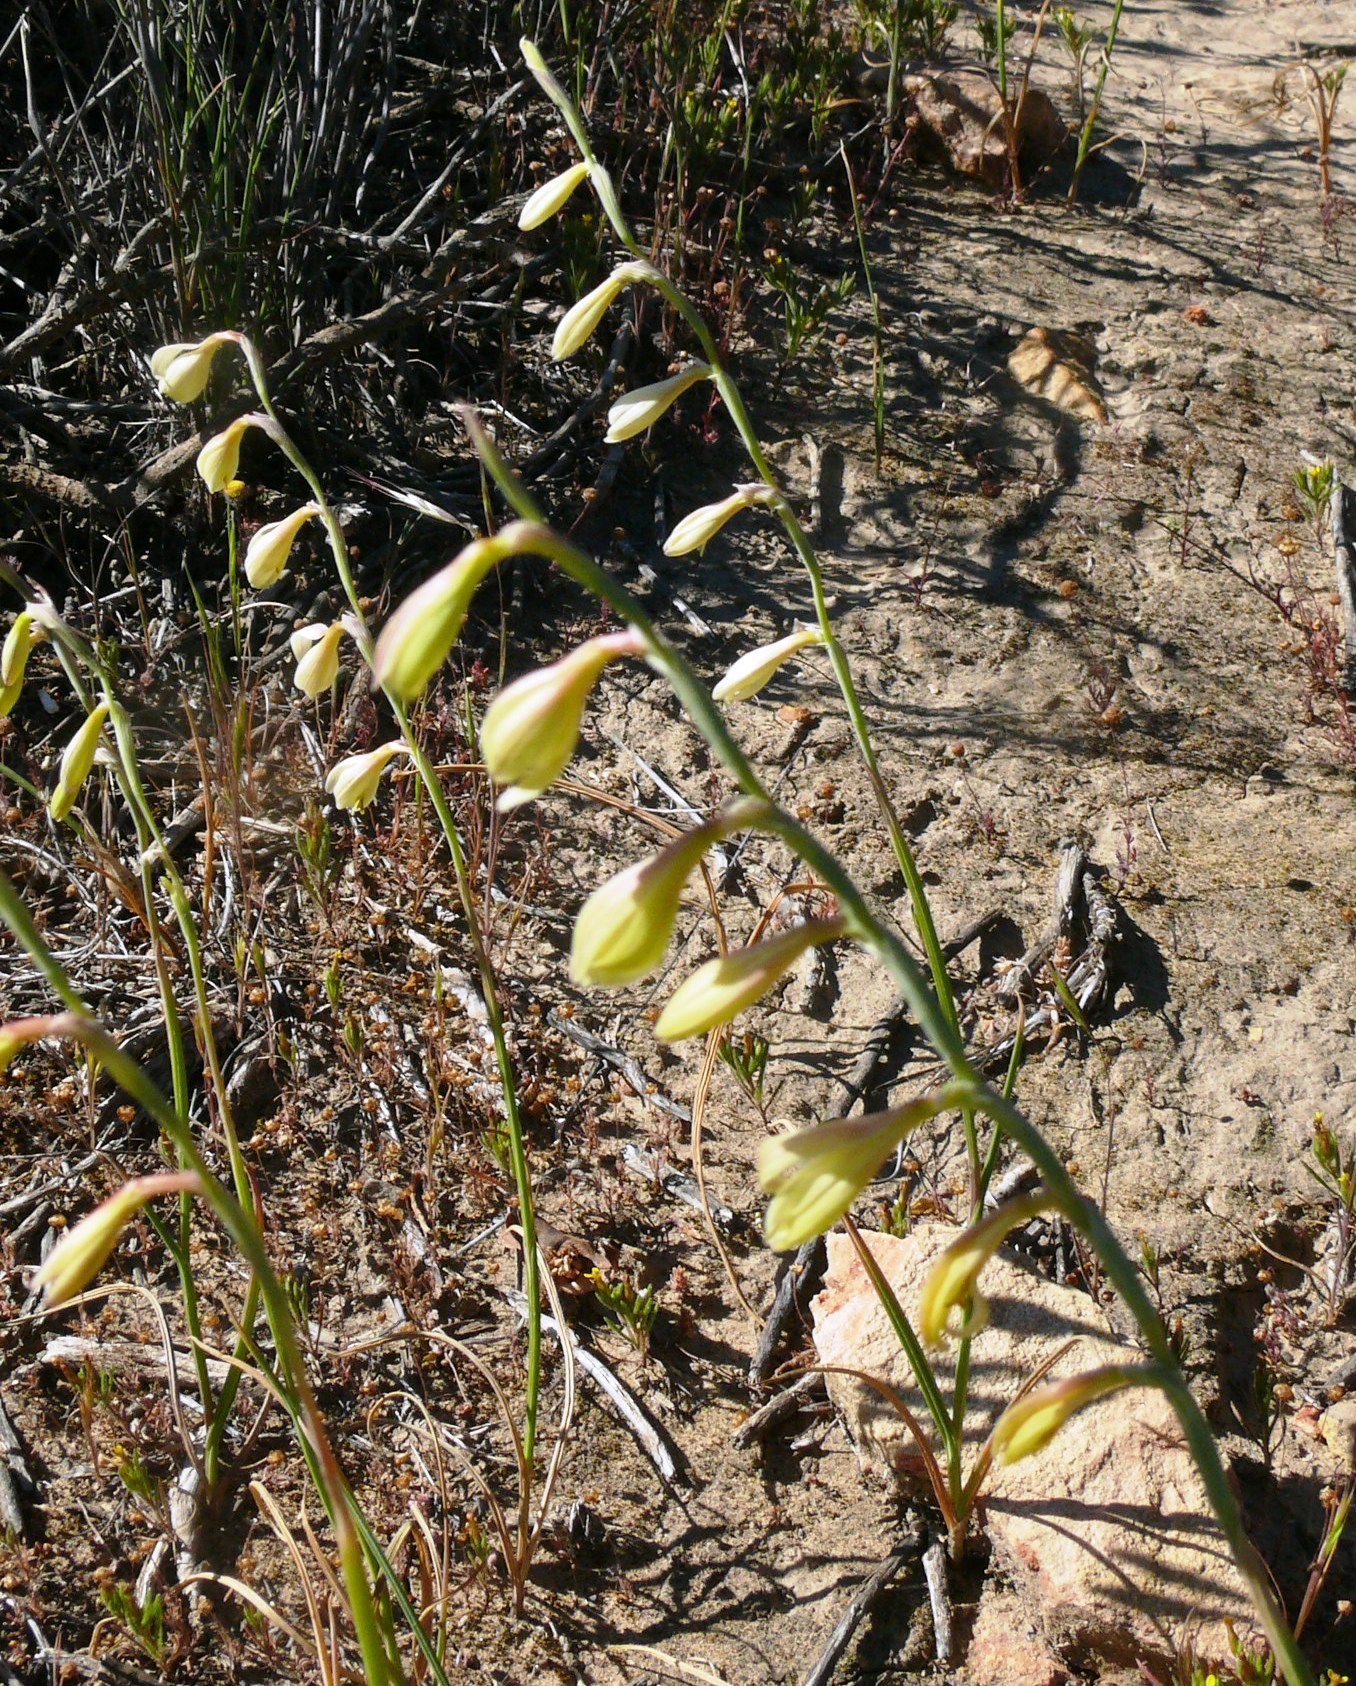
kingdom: Plantae
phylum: Tracheophyta
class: Liliopsida
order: Asparagales
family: Iridaceae
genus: Hesperantha
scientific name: Hesperantha radiata
